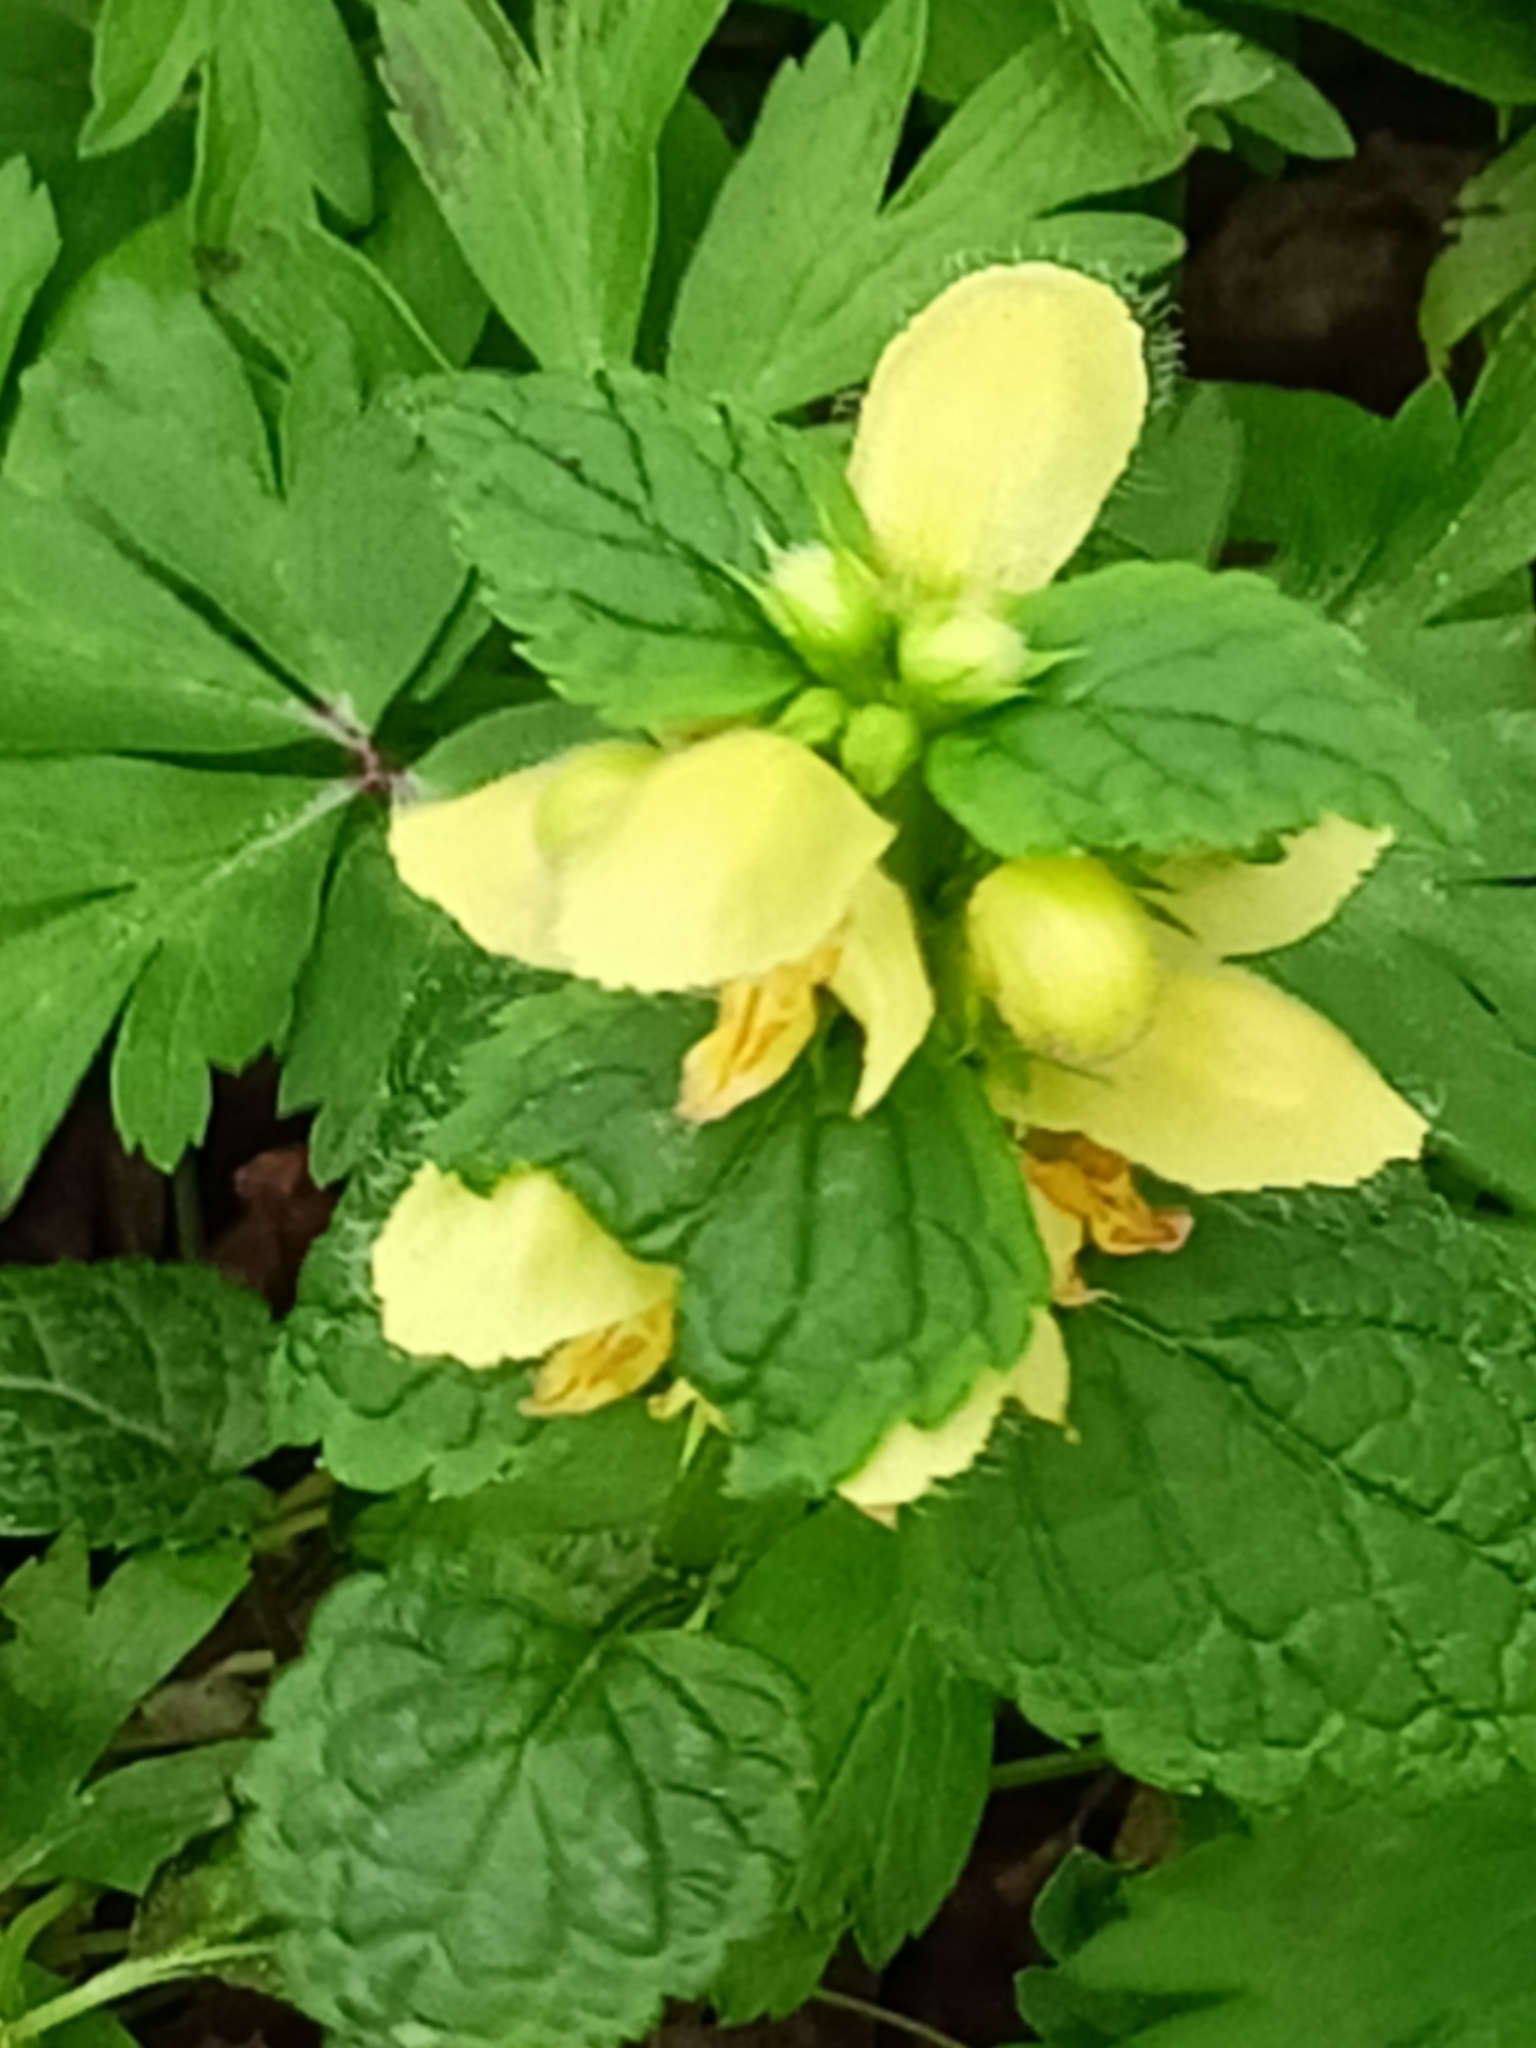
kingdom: Plantae
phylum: Tracheophyta
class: Magnoliopsida
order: Lamiales
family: Lamiaceae
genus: Lamium
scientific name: Lamium galeobdolon
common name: Yellow archangel
